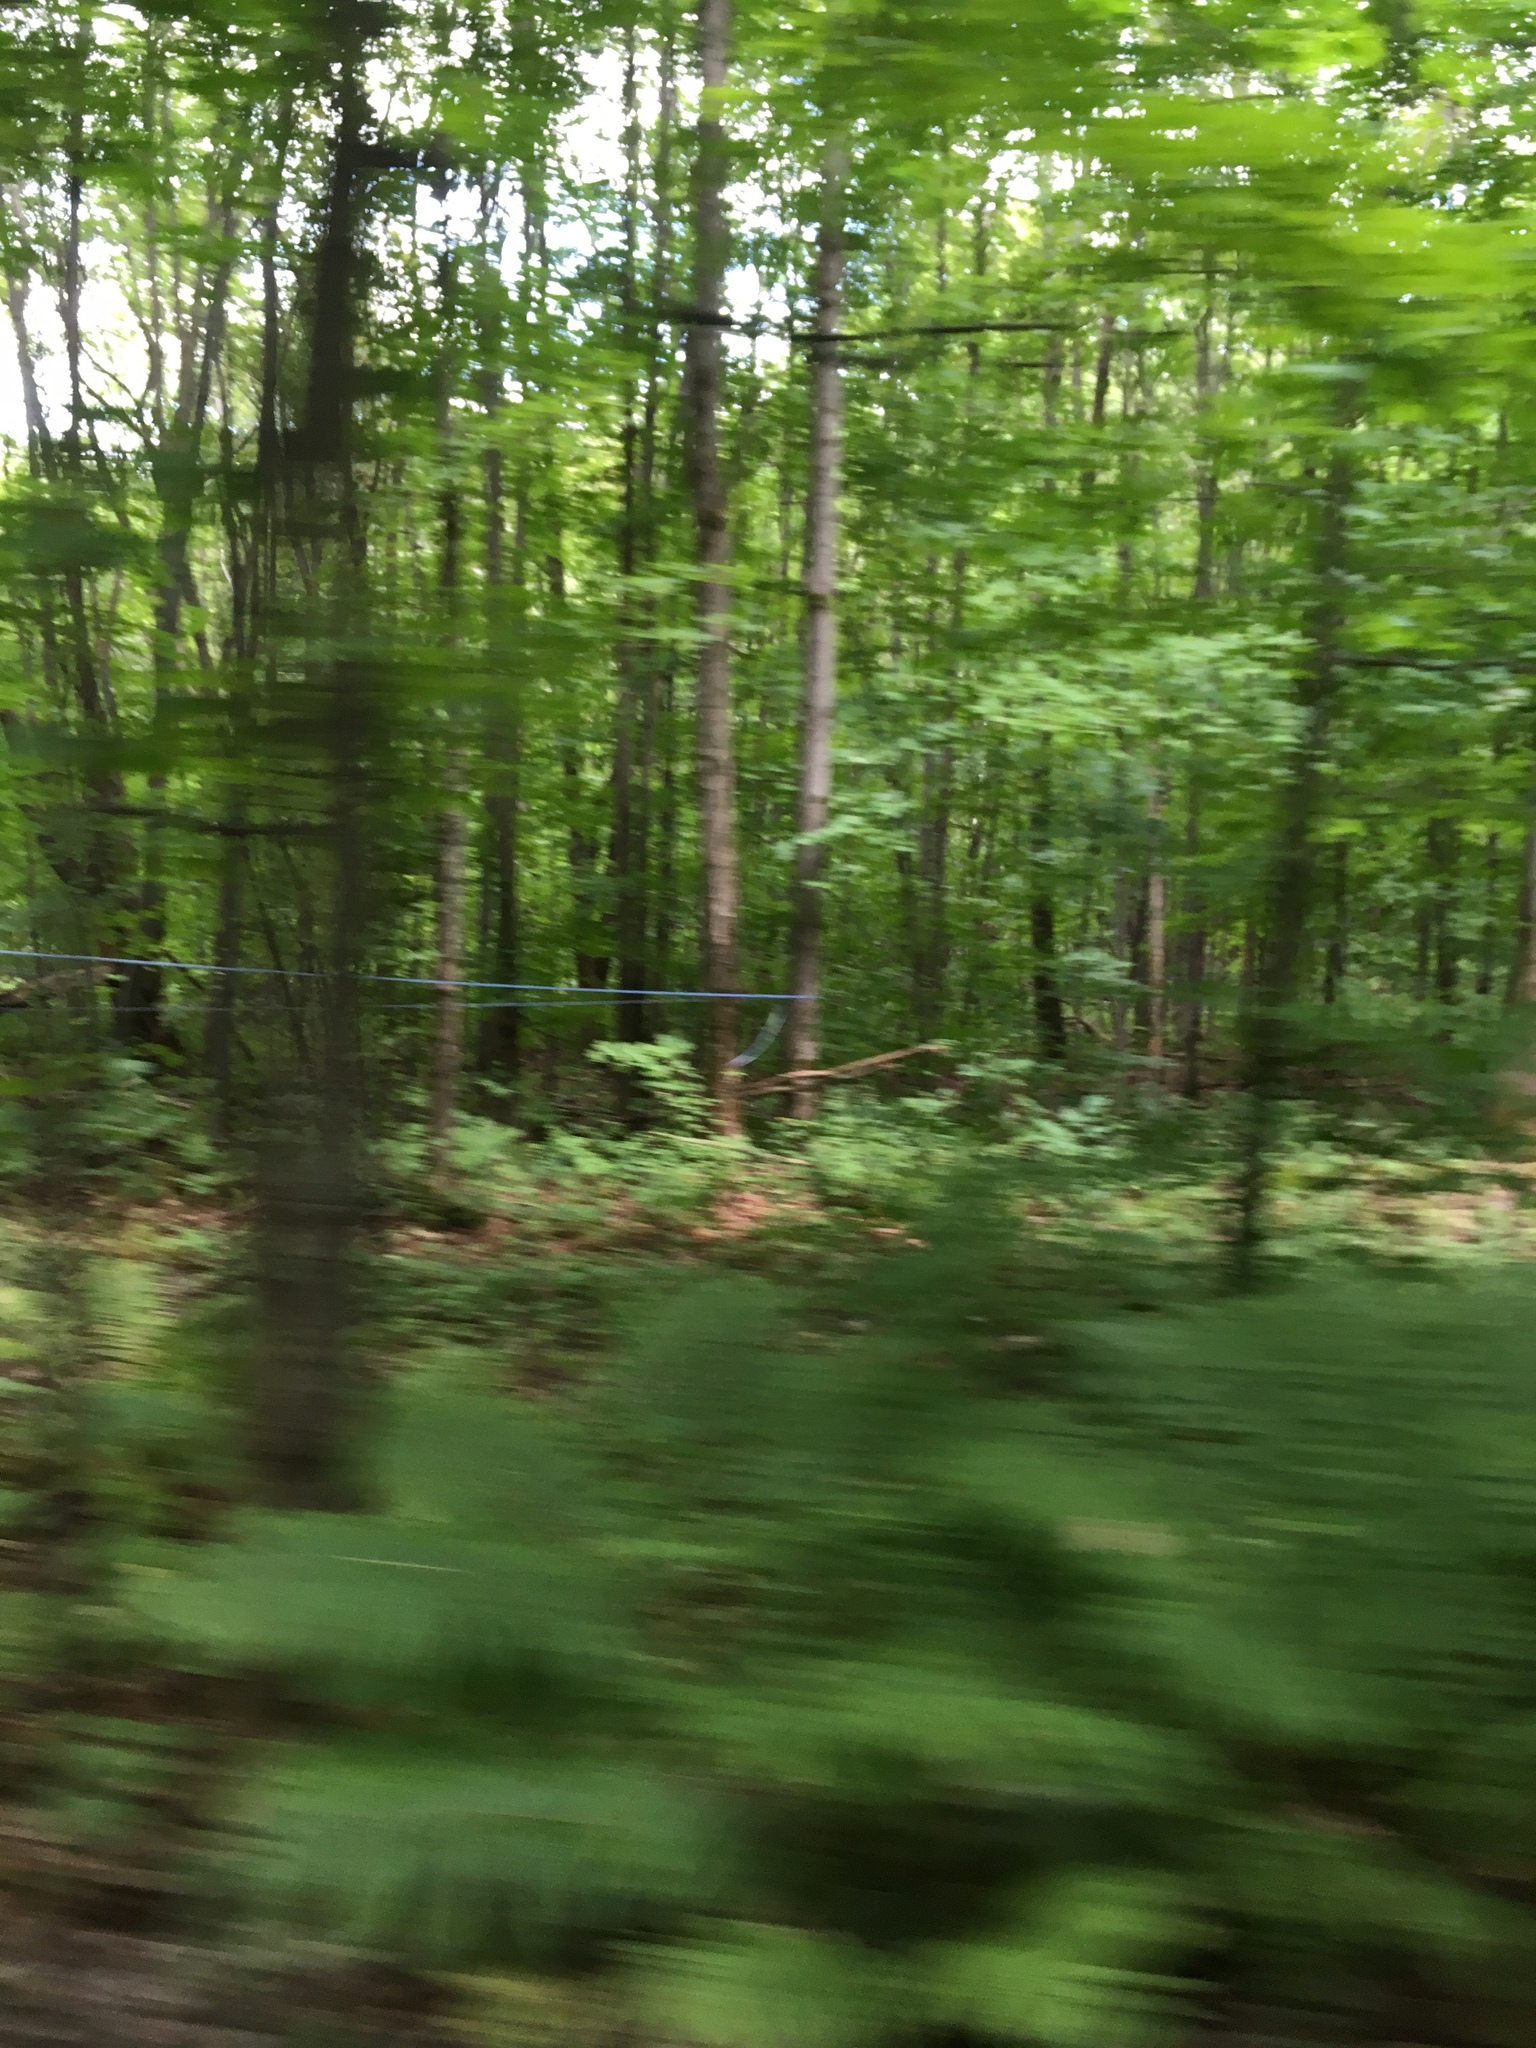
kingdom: Plantae
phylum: Tracheophyta
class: Magnoliopsida
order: Sapindales
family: Sapindaceae
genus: Acer
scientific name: Acer saccharum
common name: Sugar maple
